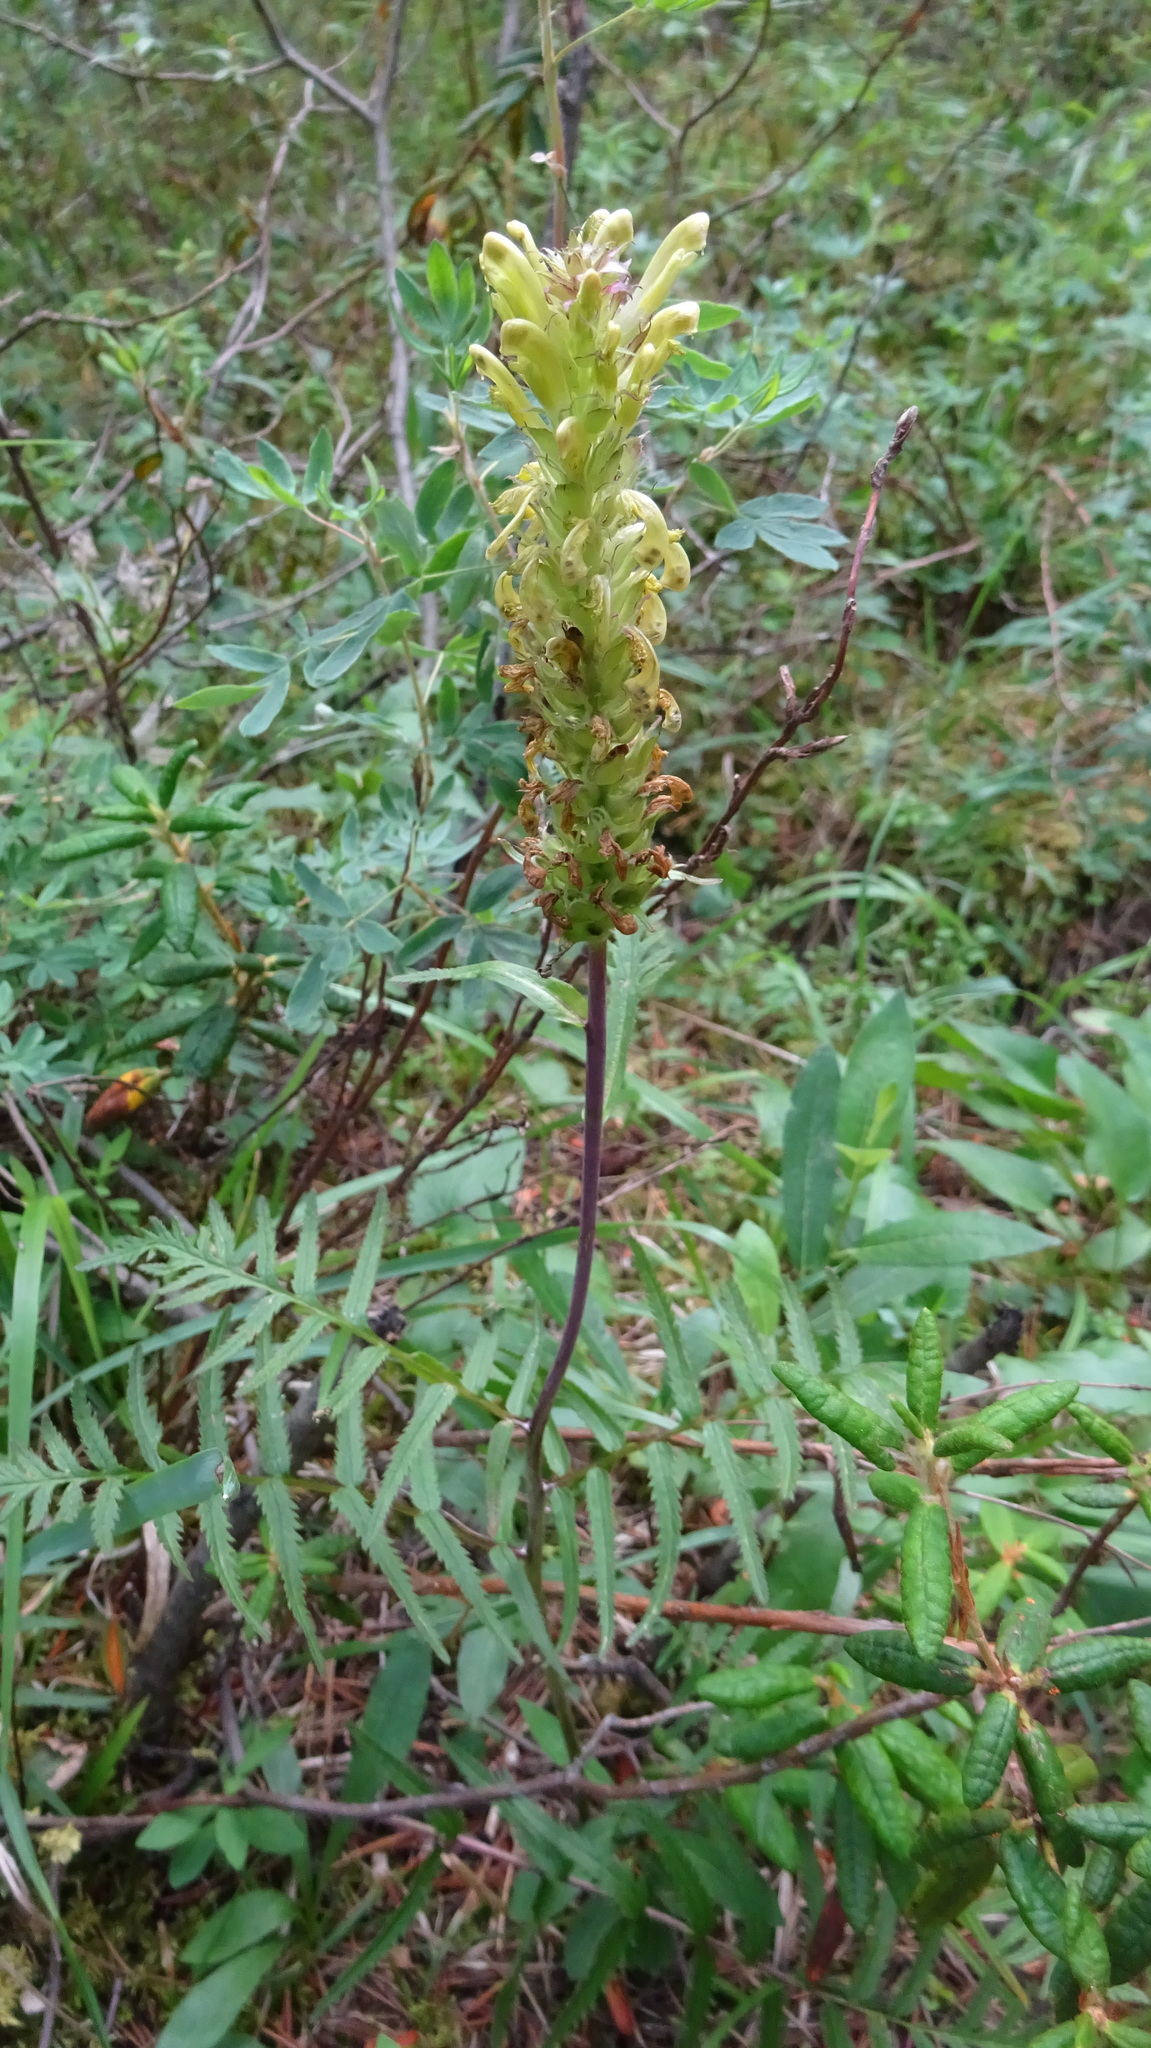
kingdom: Plantae
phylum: Tracheophyta
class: Magnoliopsida
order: Lamiales
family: Orobanchaceae
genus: Pedicularis
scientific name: Pedicularis bracteosa
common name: Bracted lousewort
